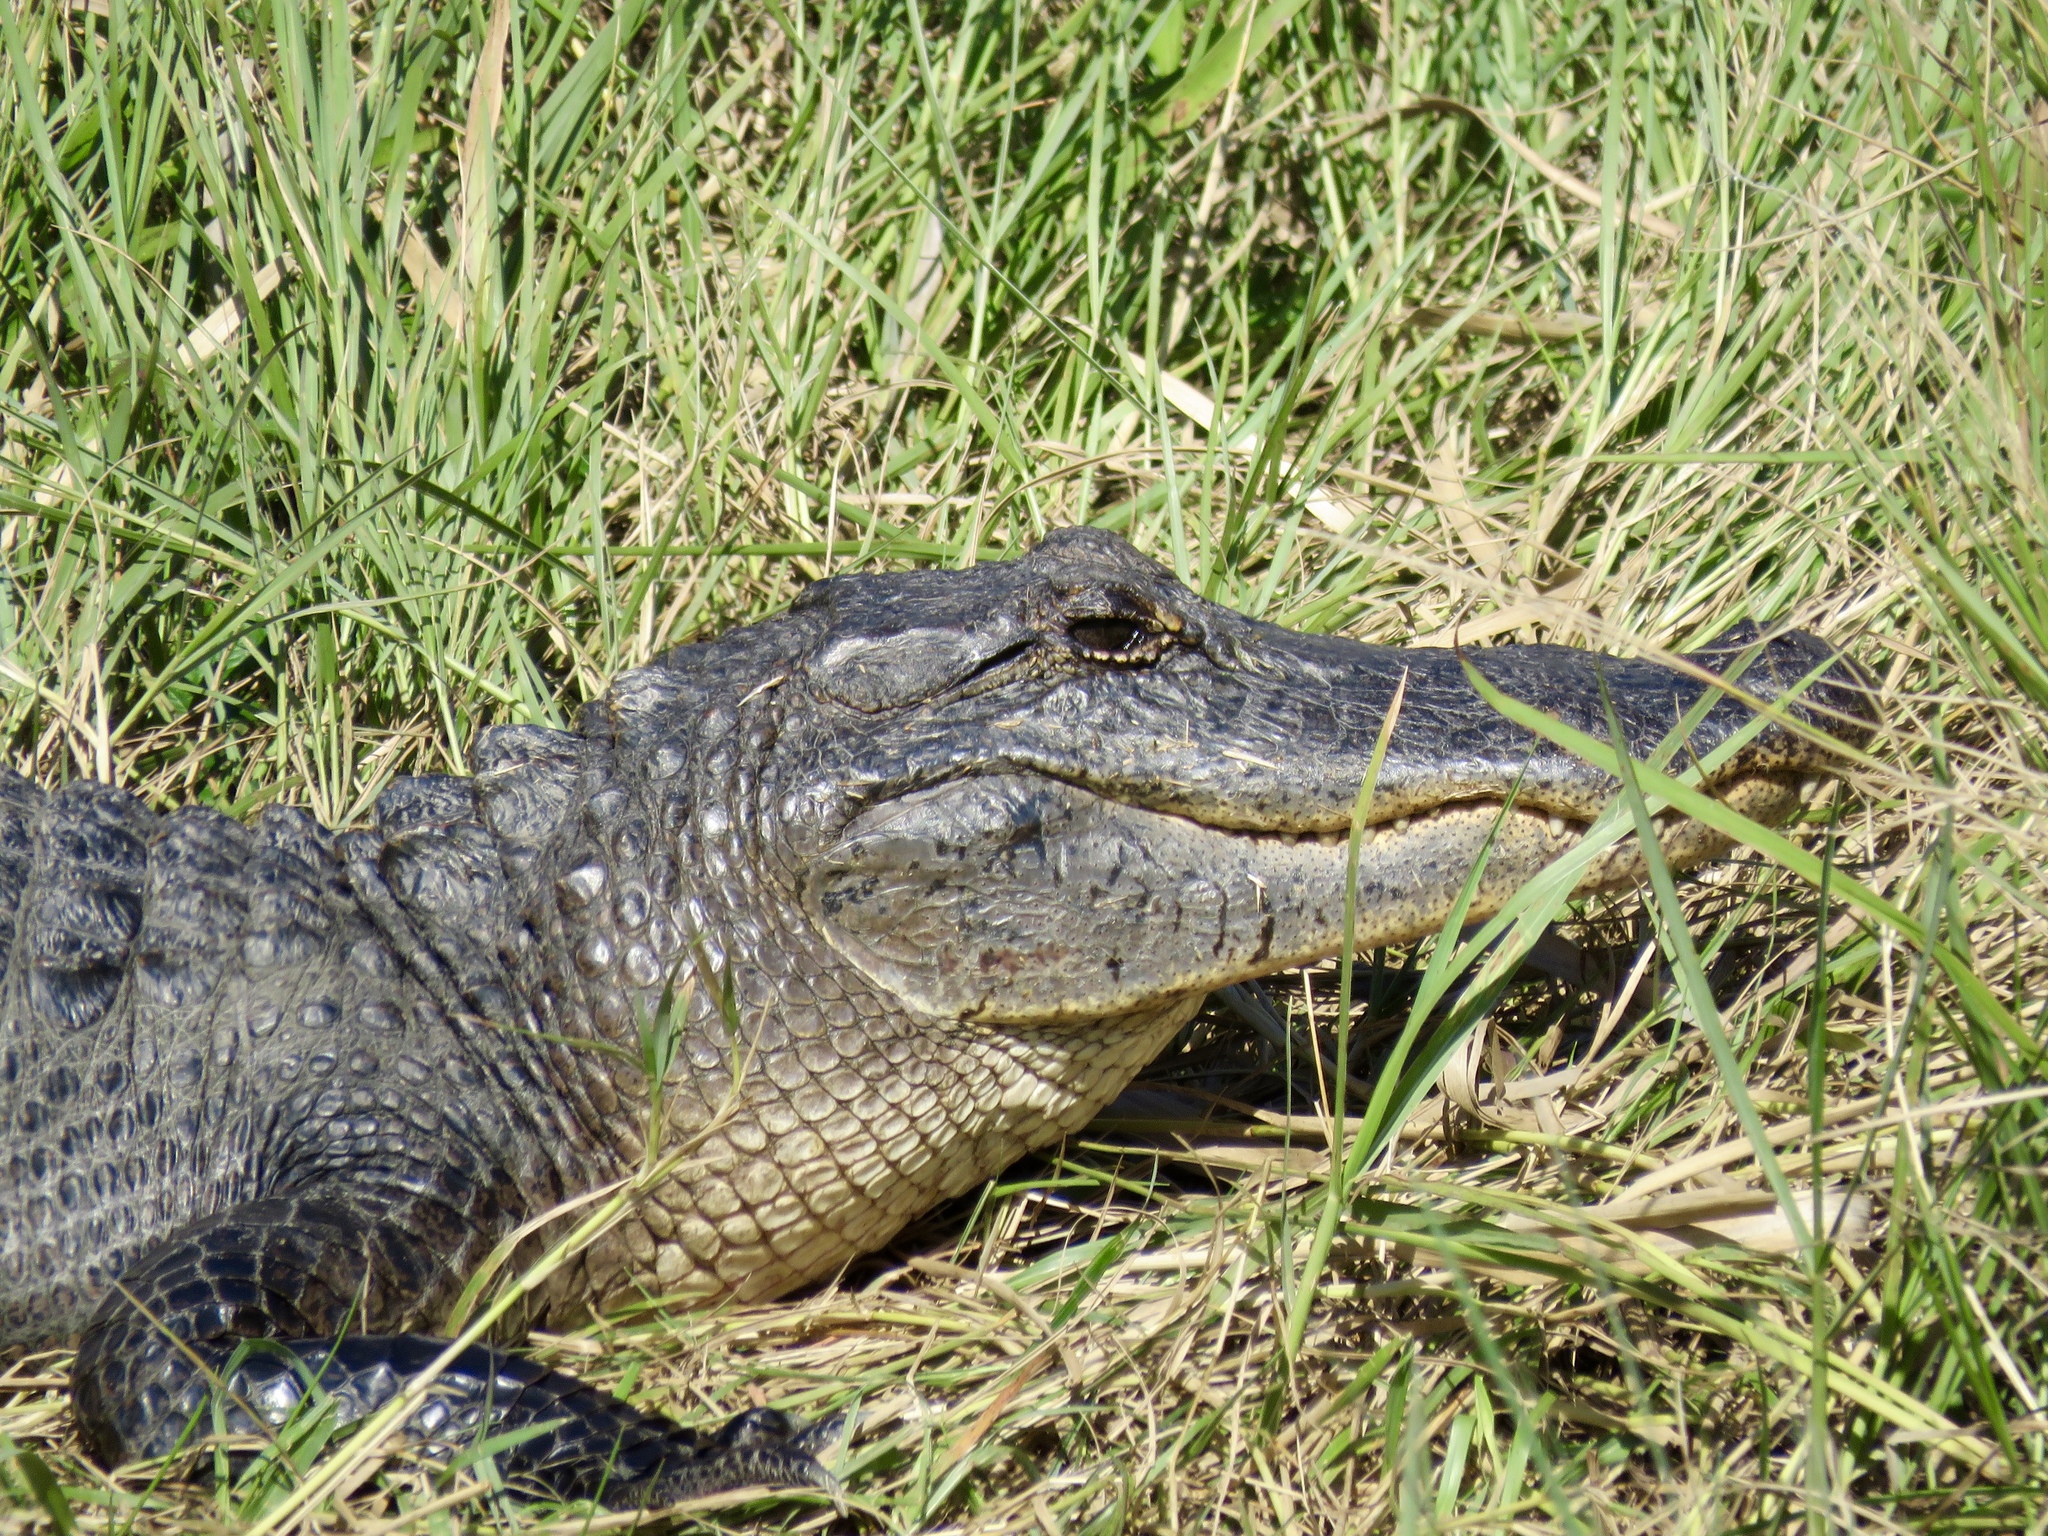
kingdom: Animalia
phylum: Chordata
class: Crocodylia
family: Alligatoridae
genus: Alligator
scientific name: Alligator mississippiensis
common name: American alligator
